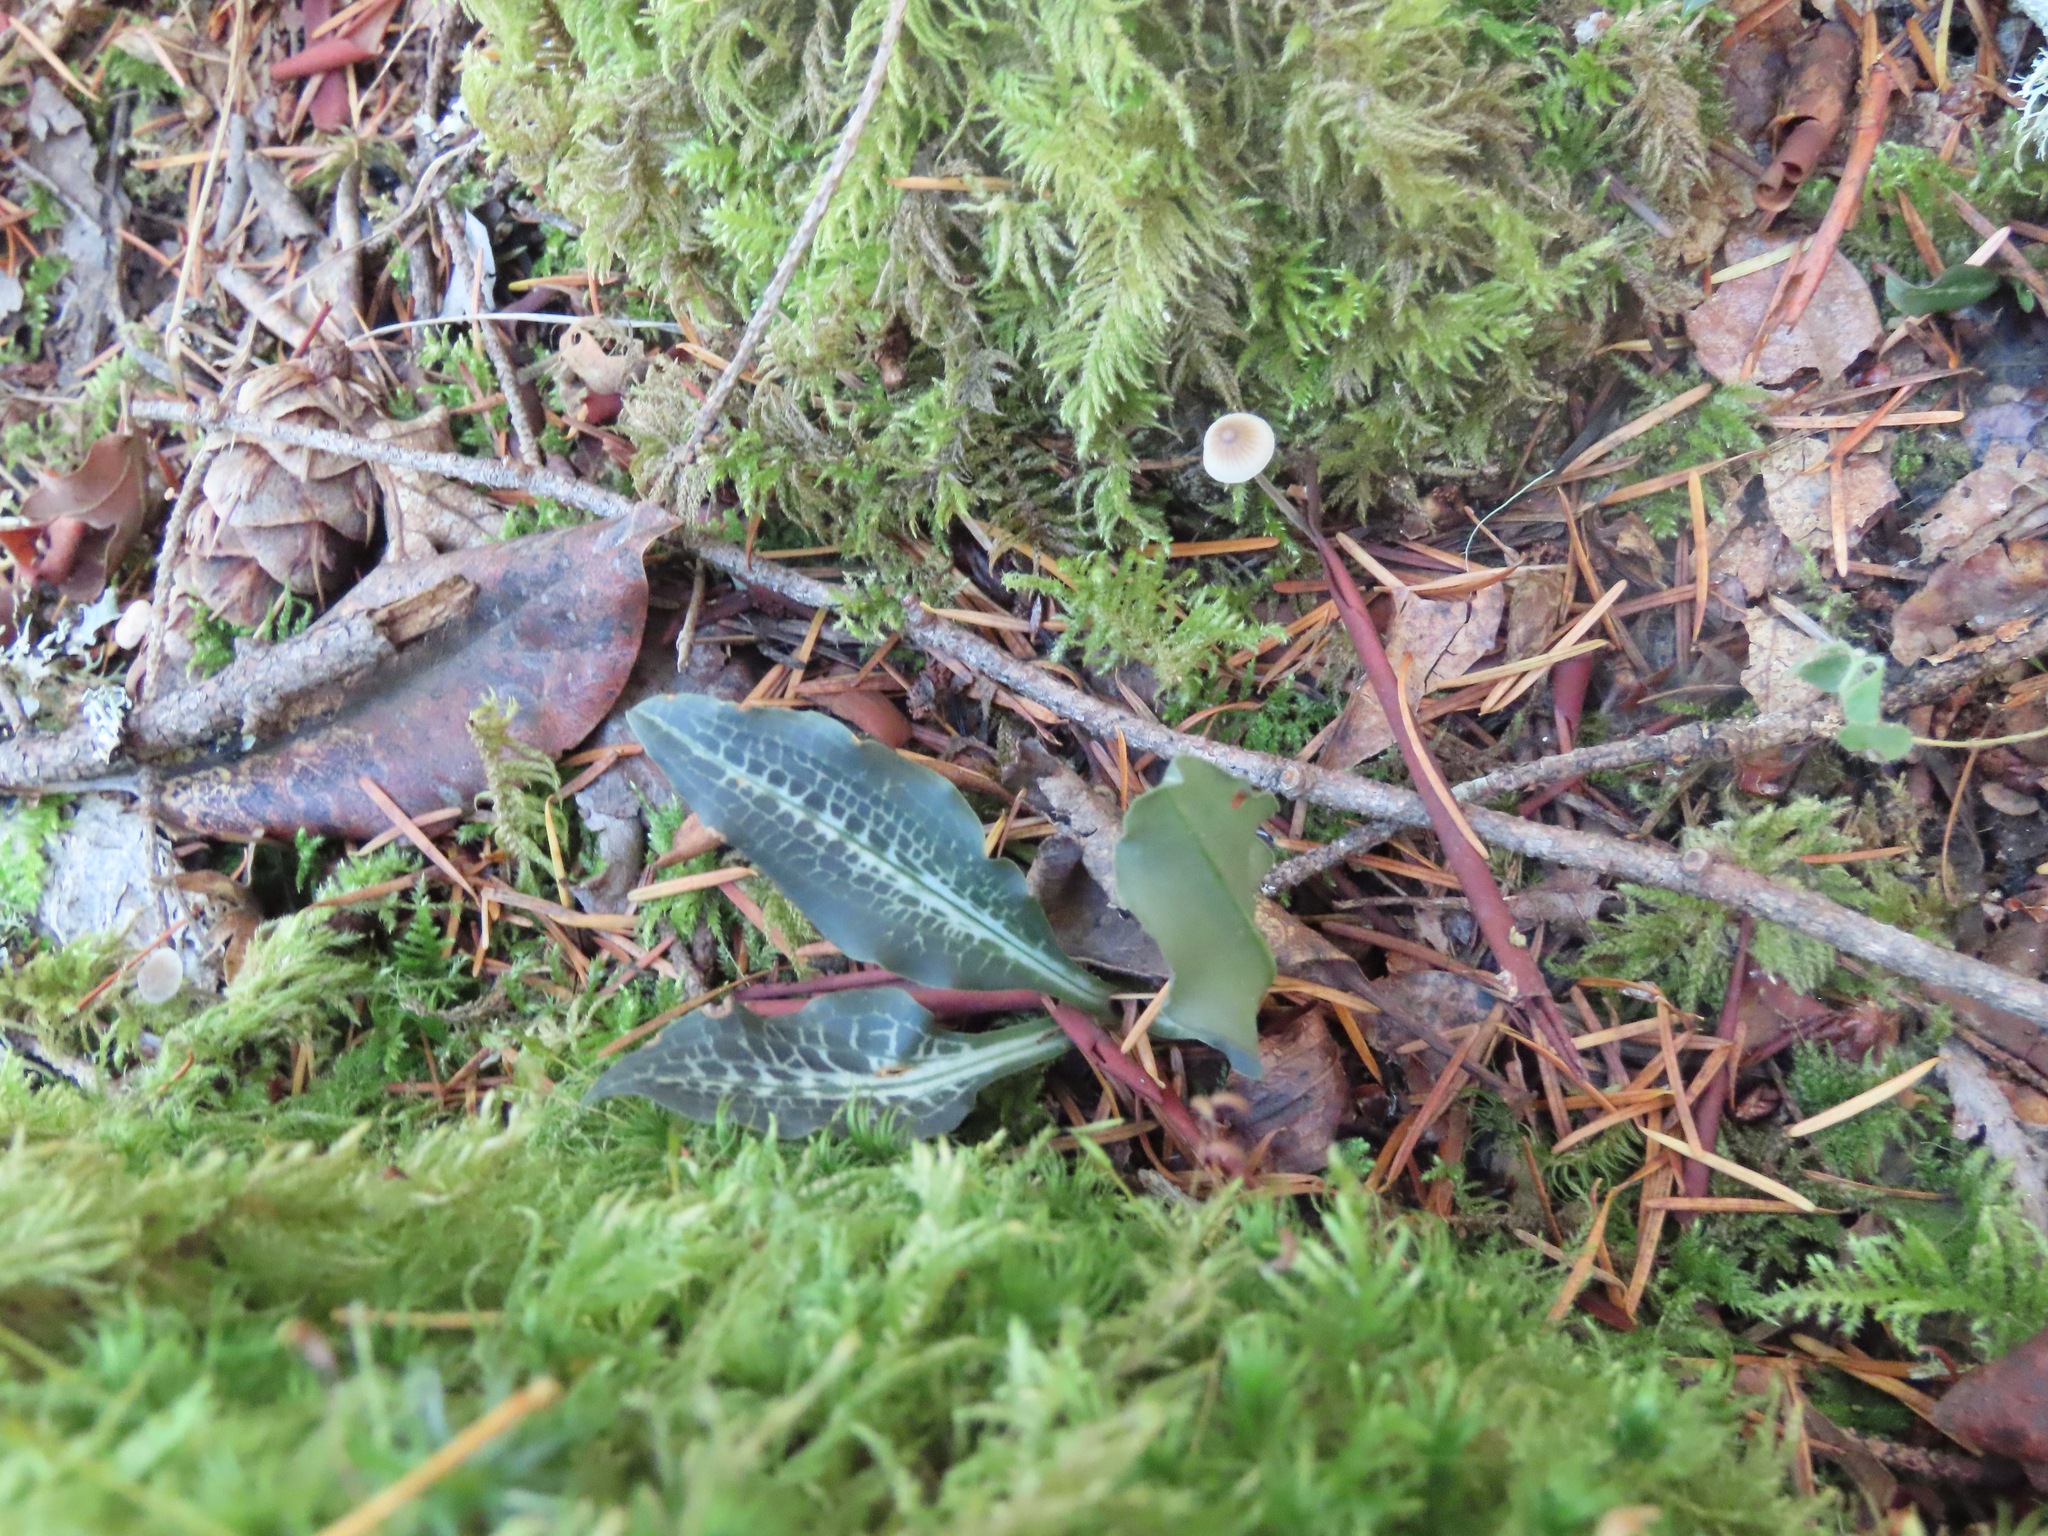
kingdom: Plantae
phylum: Tracheophyta
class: Liliopsida
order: Asparagales
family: Orchidaceae
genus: Goodyera
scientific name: Goodyera oblongifolia
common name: Giant rattlesnake-plantain
